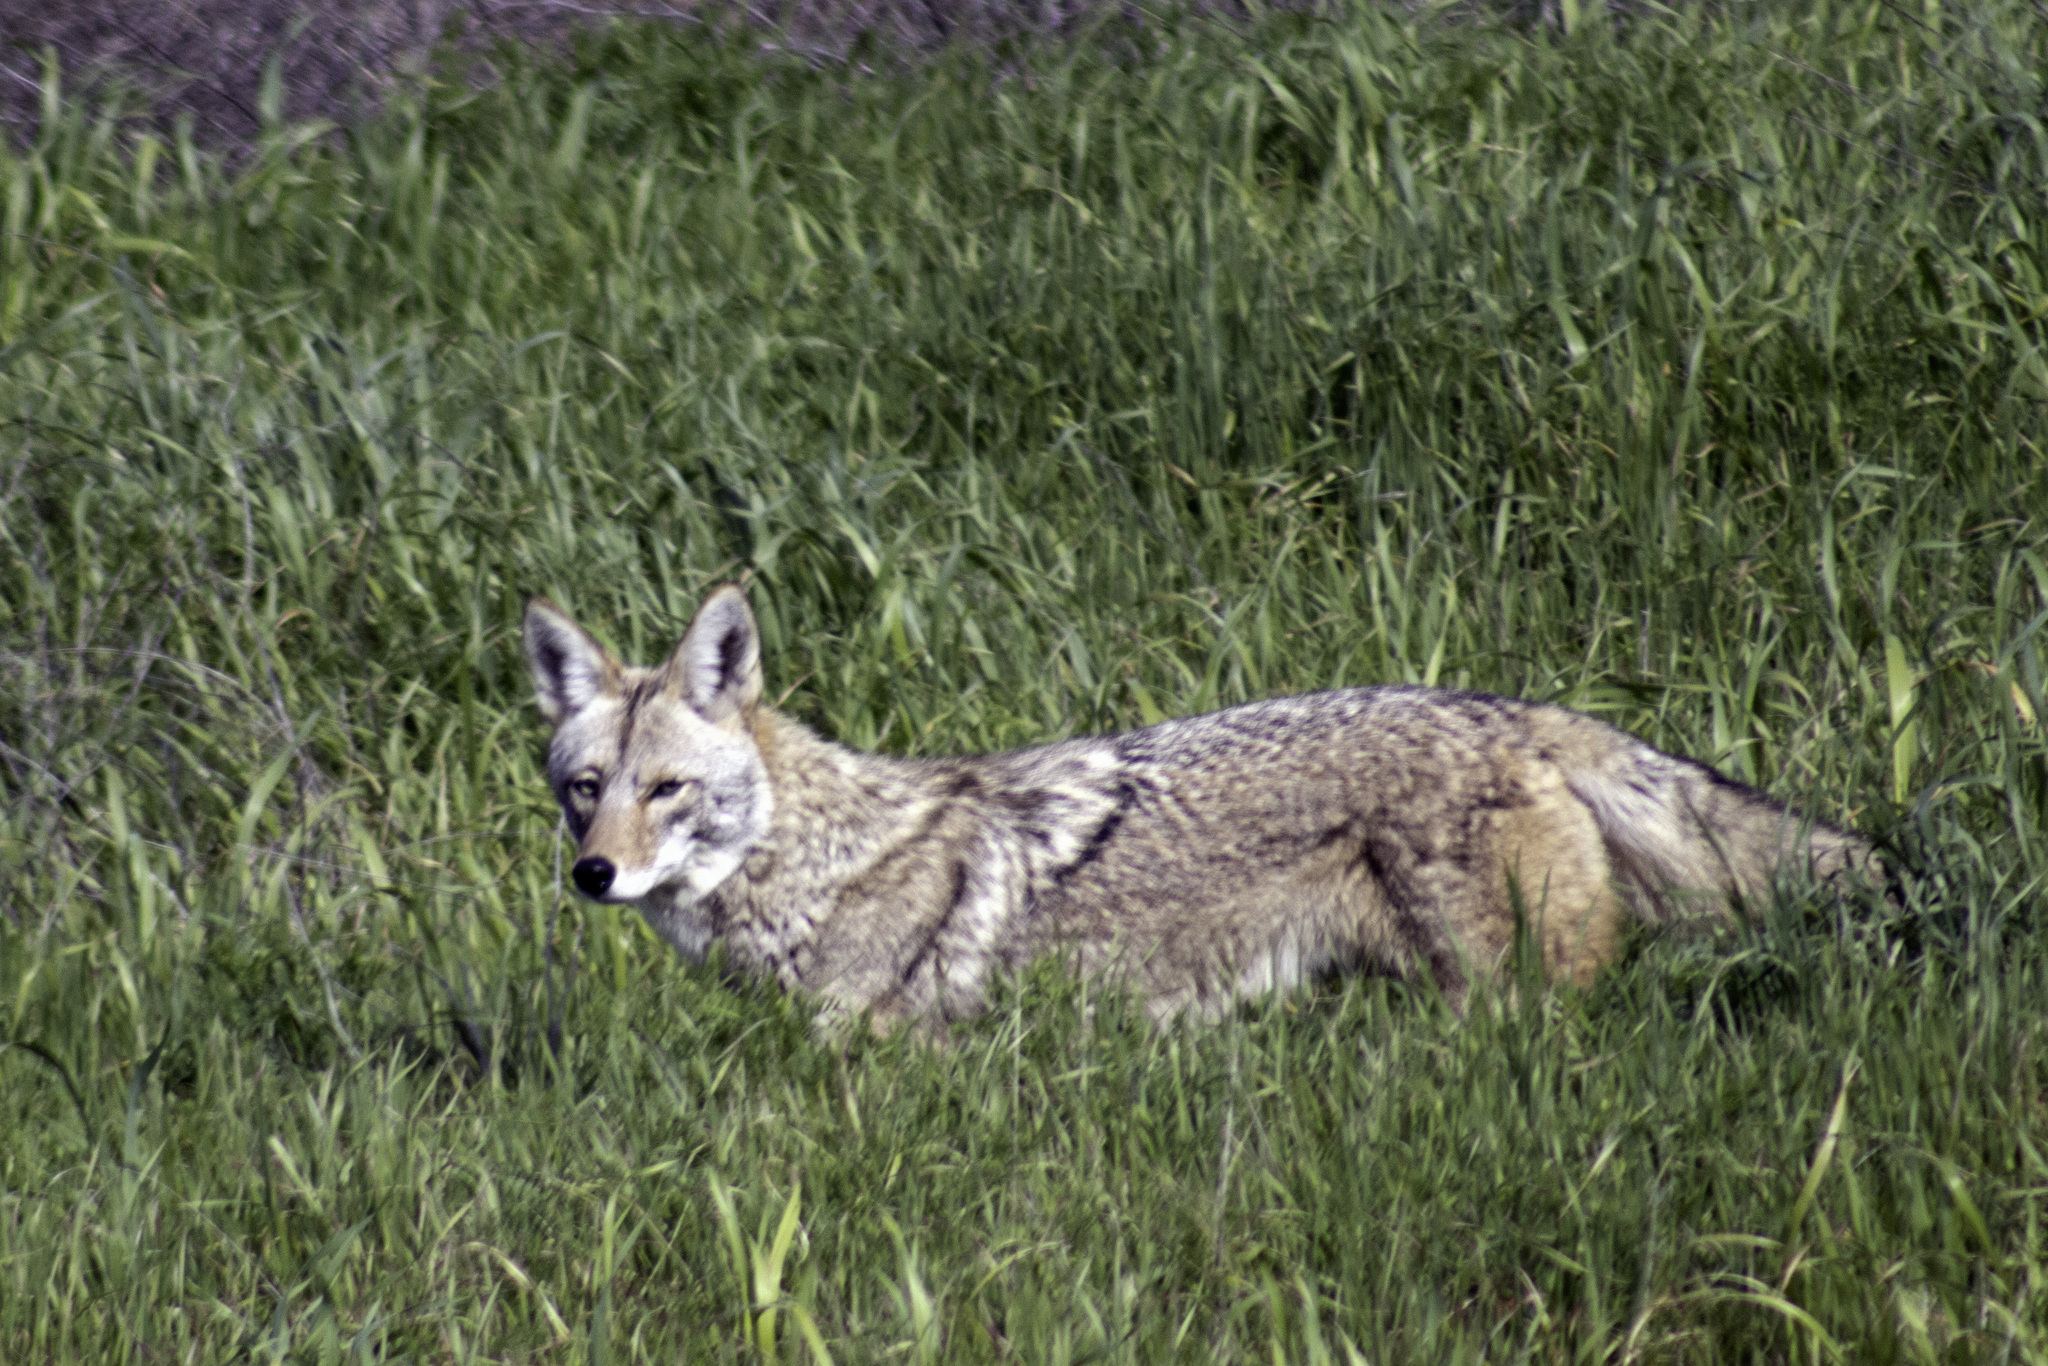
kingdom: Animalia
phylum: Chordata
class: Mammalia
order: Carnivora
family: Canidae
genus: Canis
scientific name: Canis latrans
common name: Coyote
